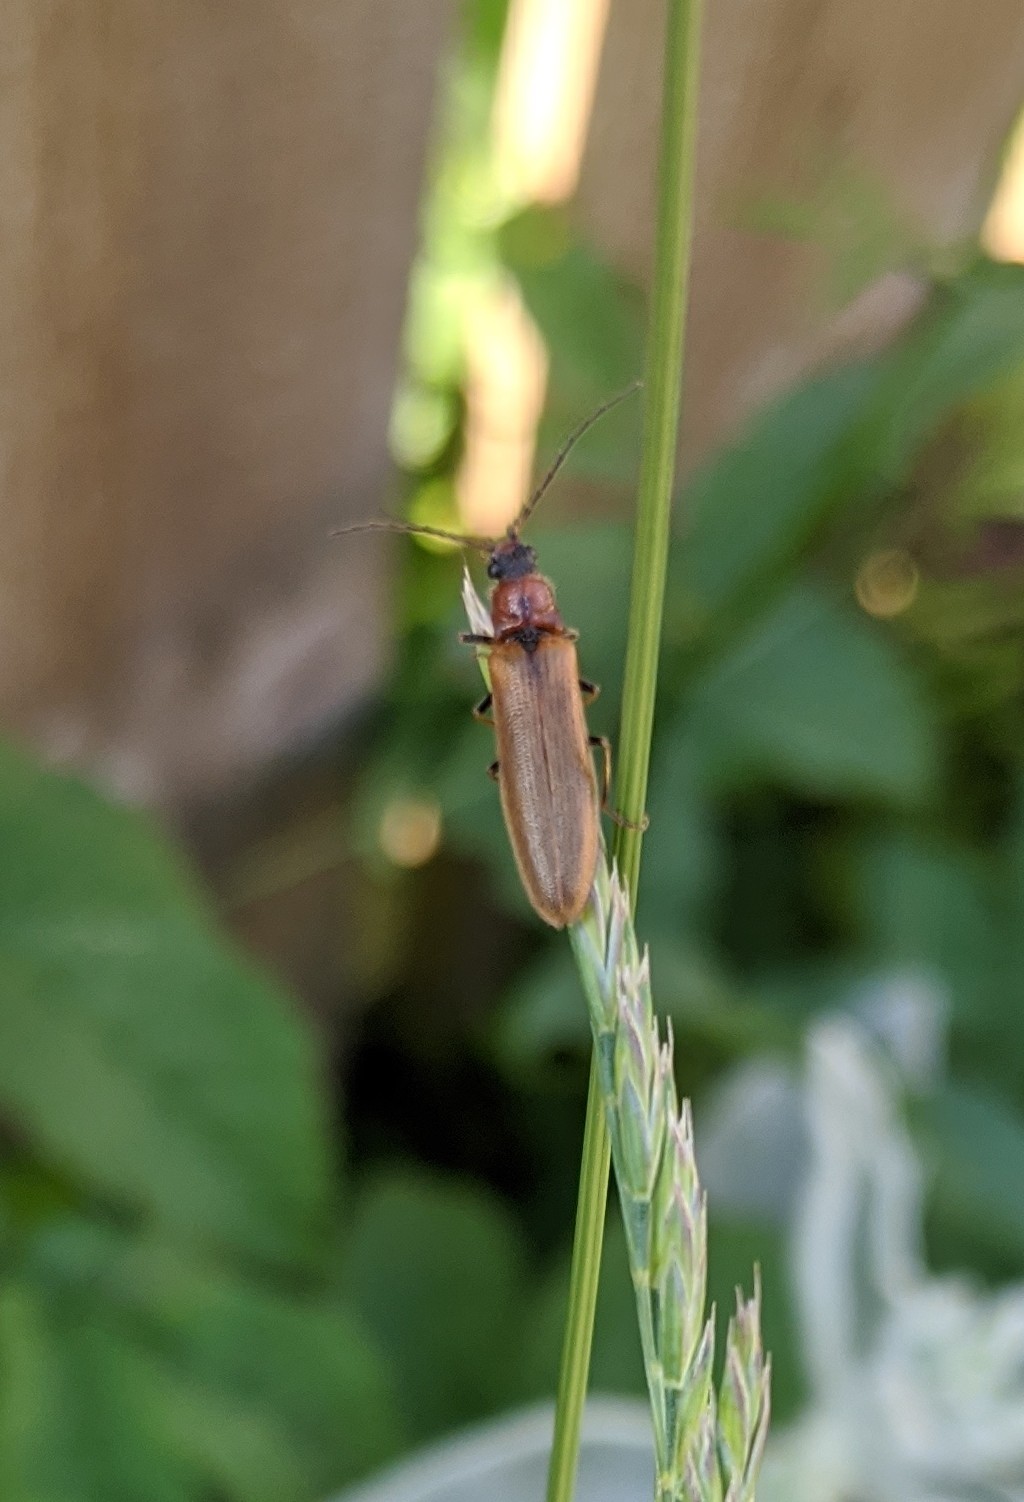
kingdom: Animalia
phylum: Arthropoda
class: Insecta
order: Coleoptera
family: Elateridae
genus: Denticollis
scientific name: Denticollis linearis
